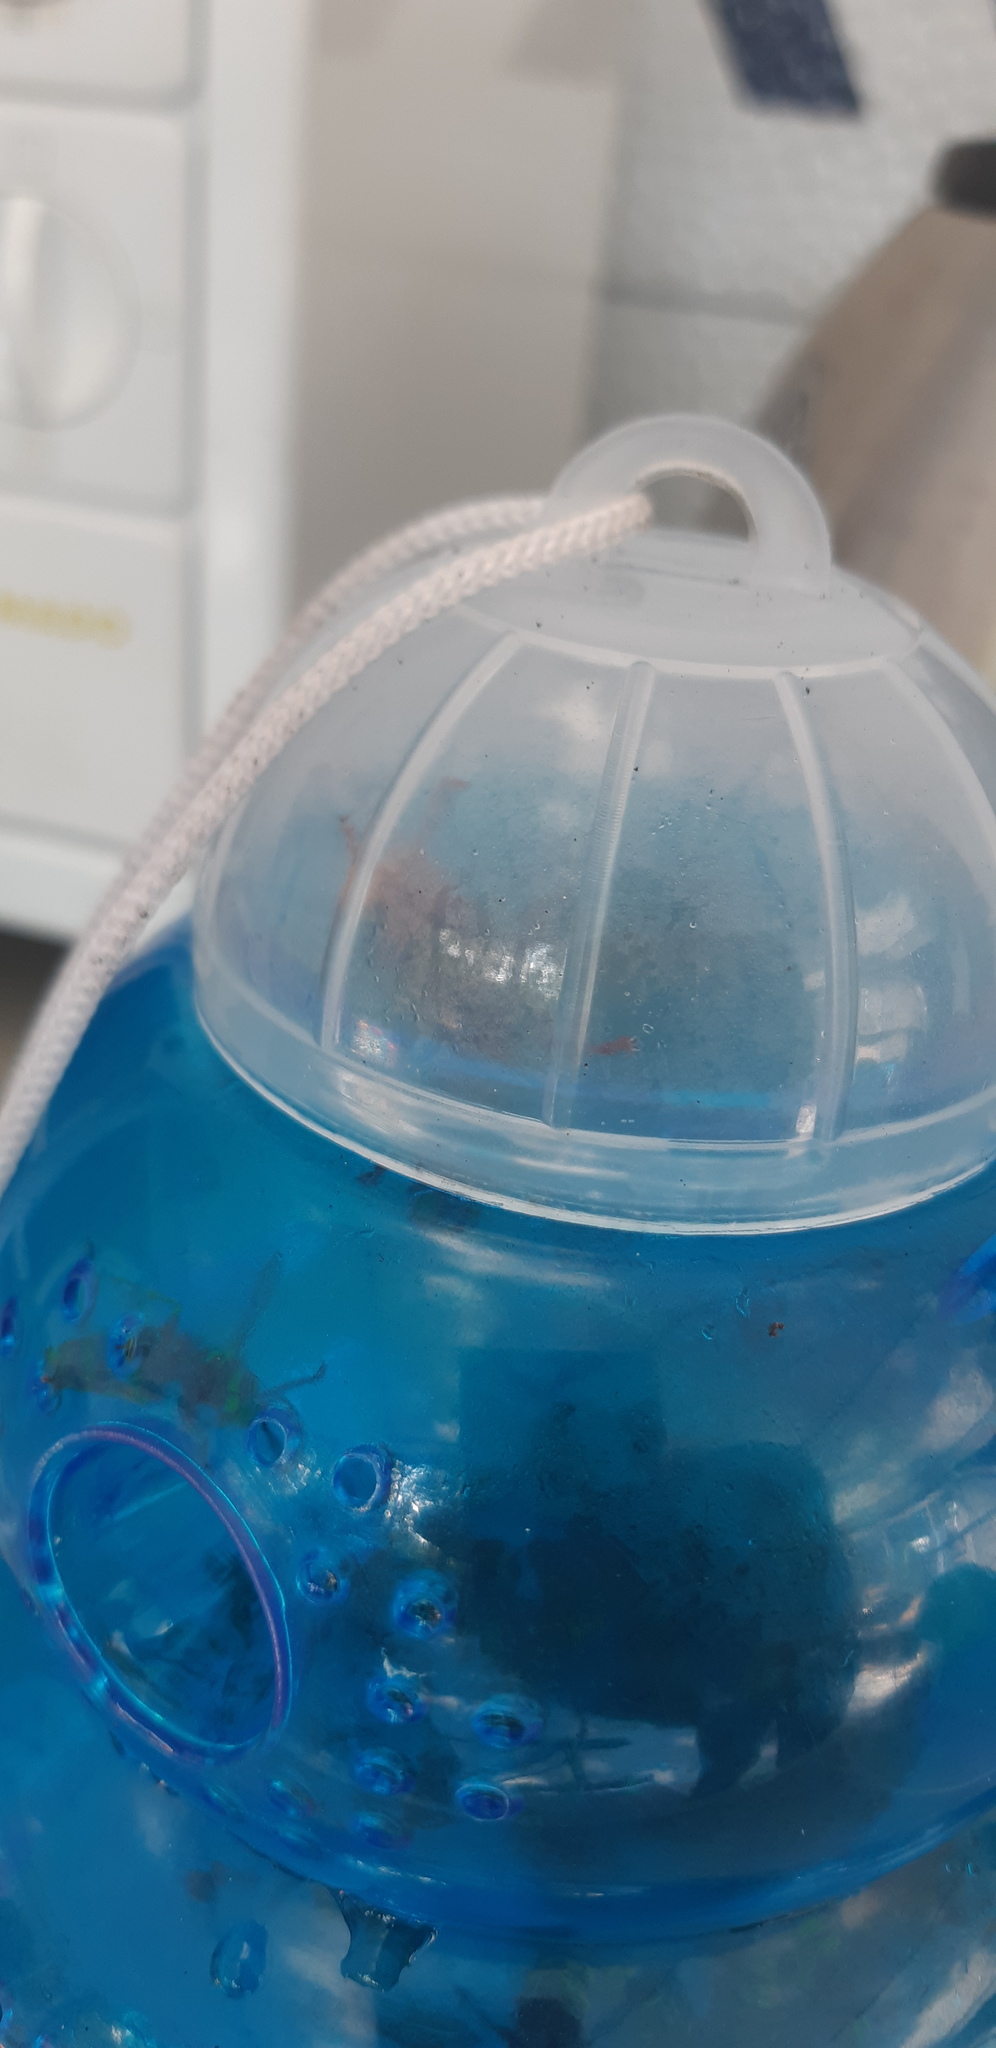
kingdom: Animalia
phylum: Arthropoda
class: Insecta
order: Hymenoptera
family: Vespidae
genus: Vespa
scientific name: Vespa crabro
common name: Hornet
